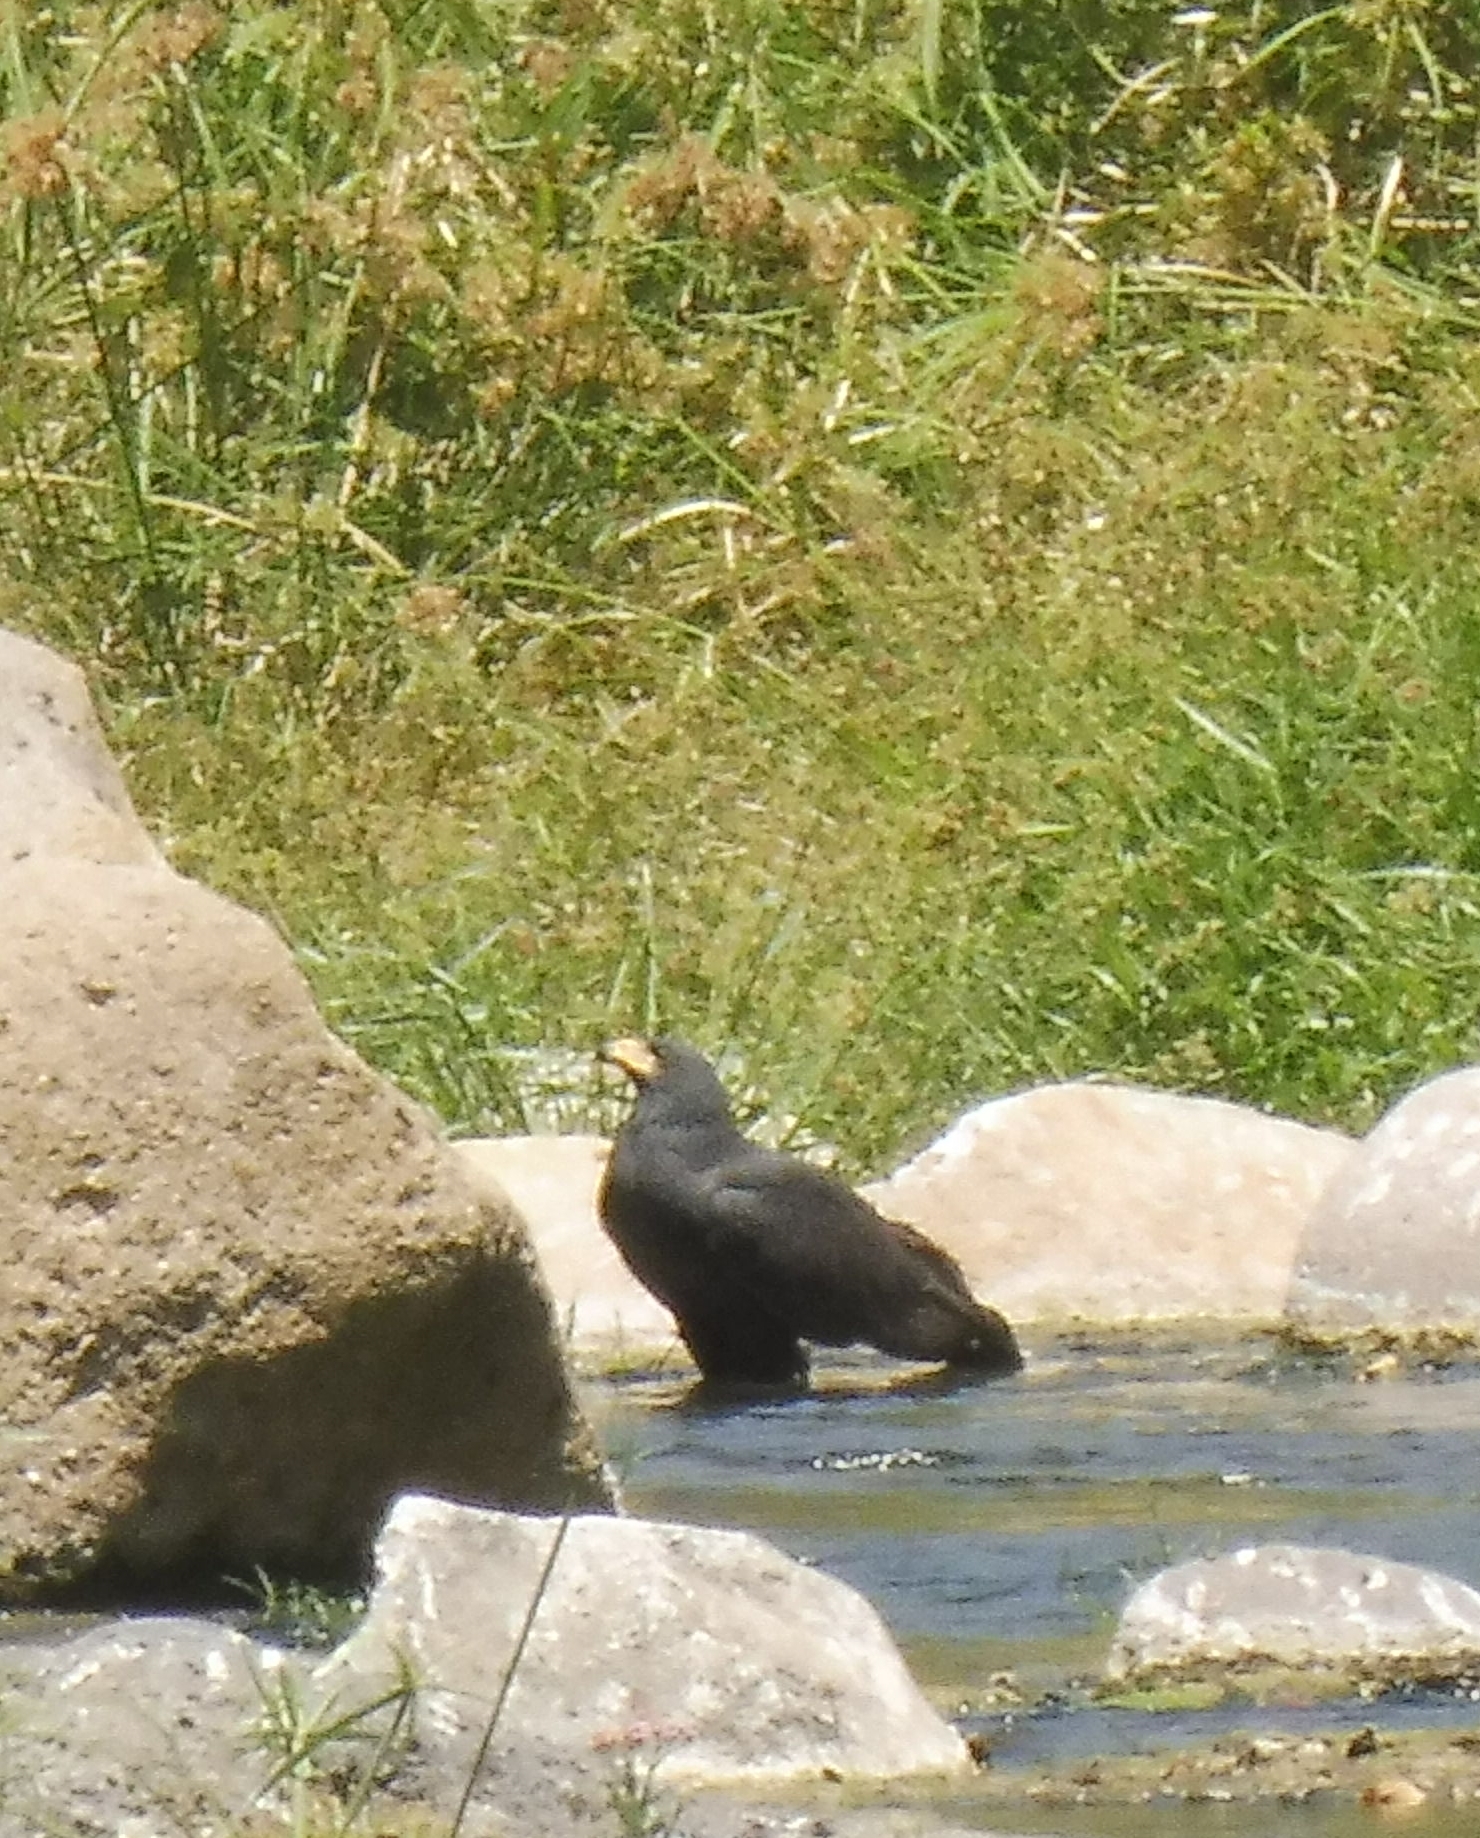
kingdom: Animalia
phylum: Chordata
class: Aves
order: Accipitriformes
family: Accipitridae
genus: Buteogallus
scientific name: Buteogallus anthracinus
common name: Common black hawk
